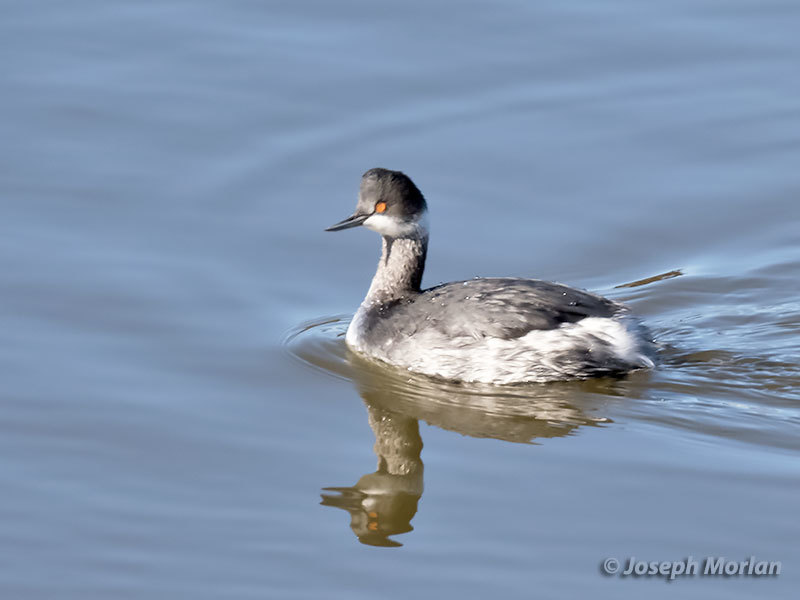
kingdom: Animalia
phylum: Chordata
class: Aves
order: Podicipediformes
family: Podicipedidae
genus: Podiceps
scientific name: Podiceps nigricollis
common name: Black-necked grebe
